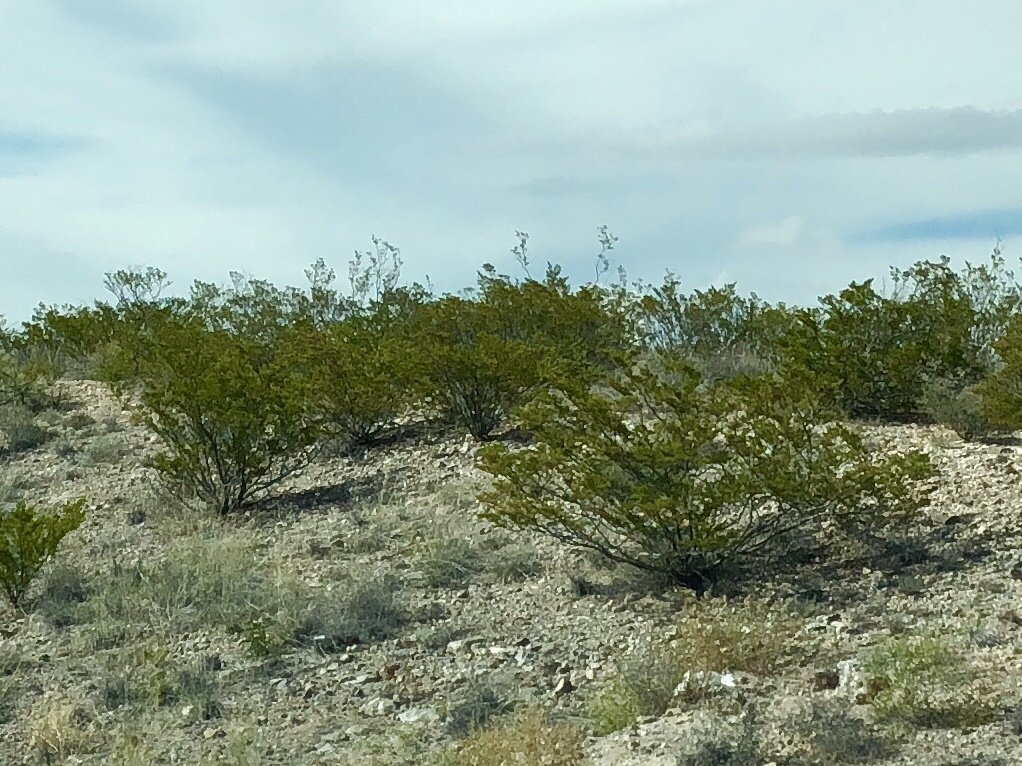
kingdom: Plantae
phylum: Tracheophyta
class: Magnoliopsida
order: Zygophyllales
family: Zygophyllaceae
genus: Larrea
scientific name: Larrea tridentata
